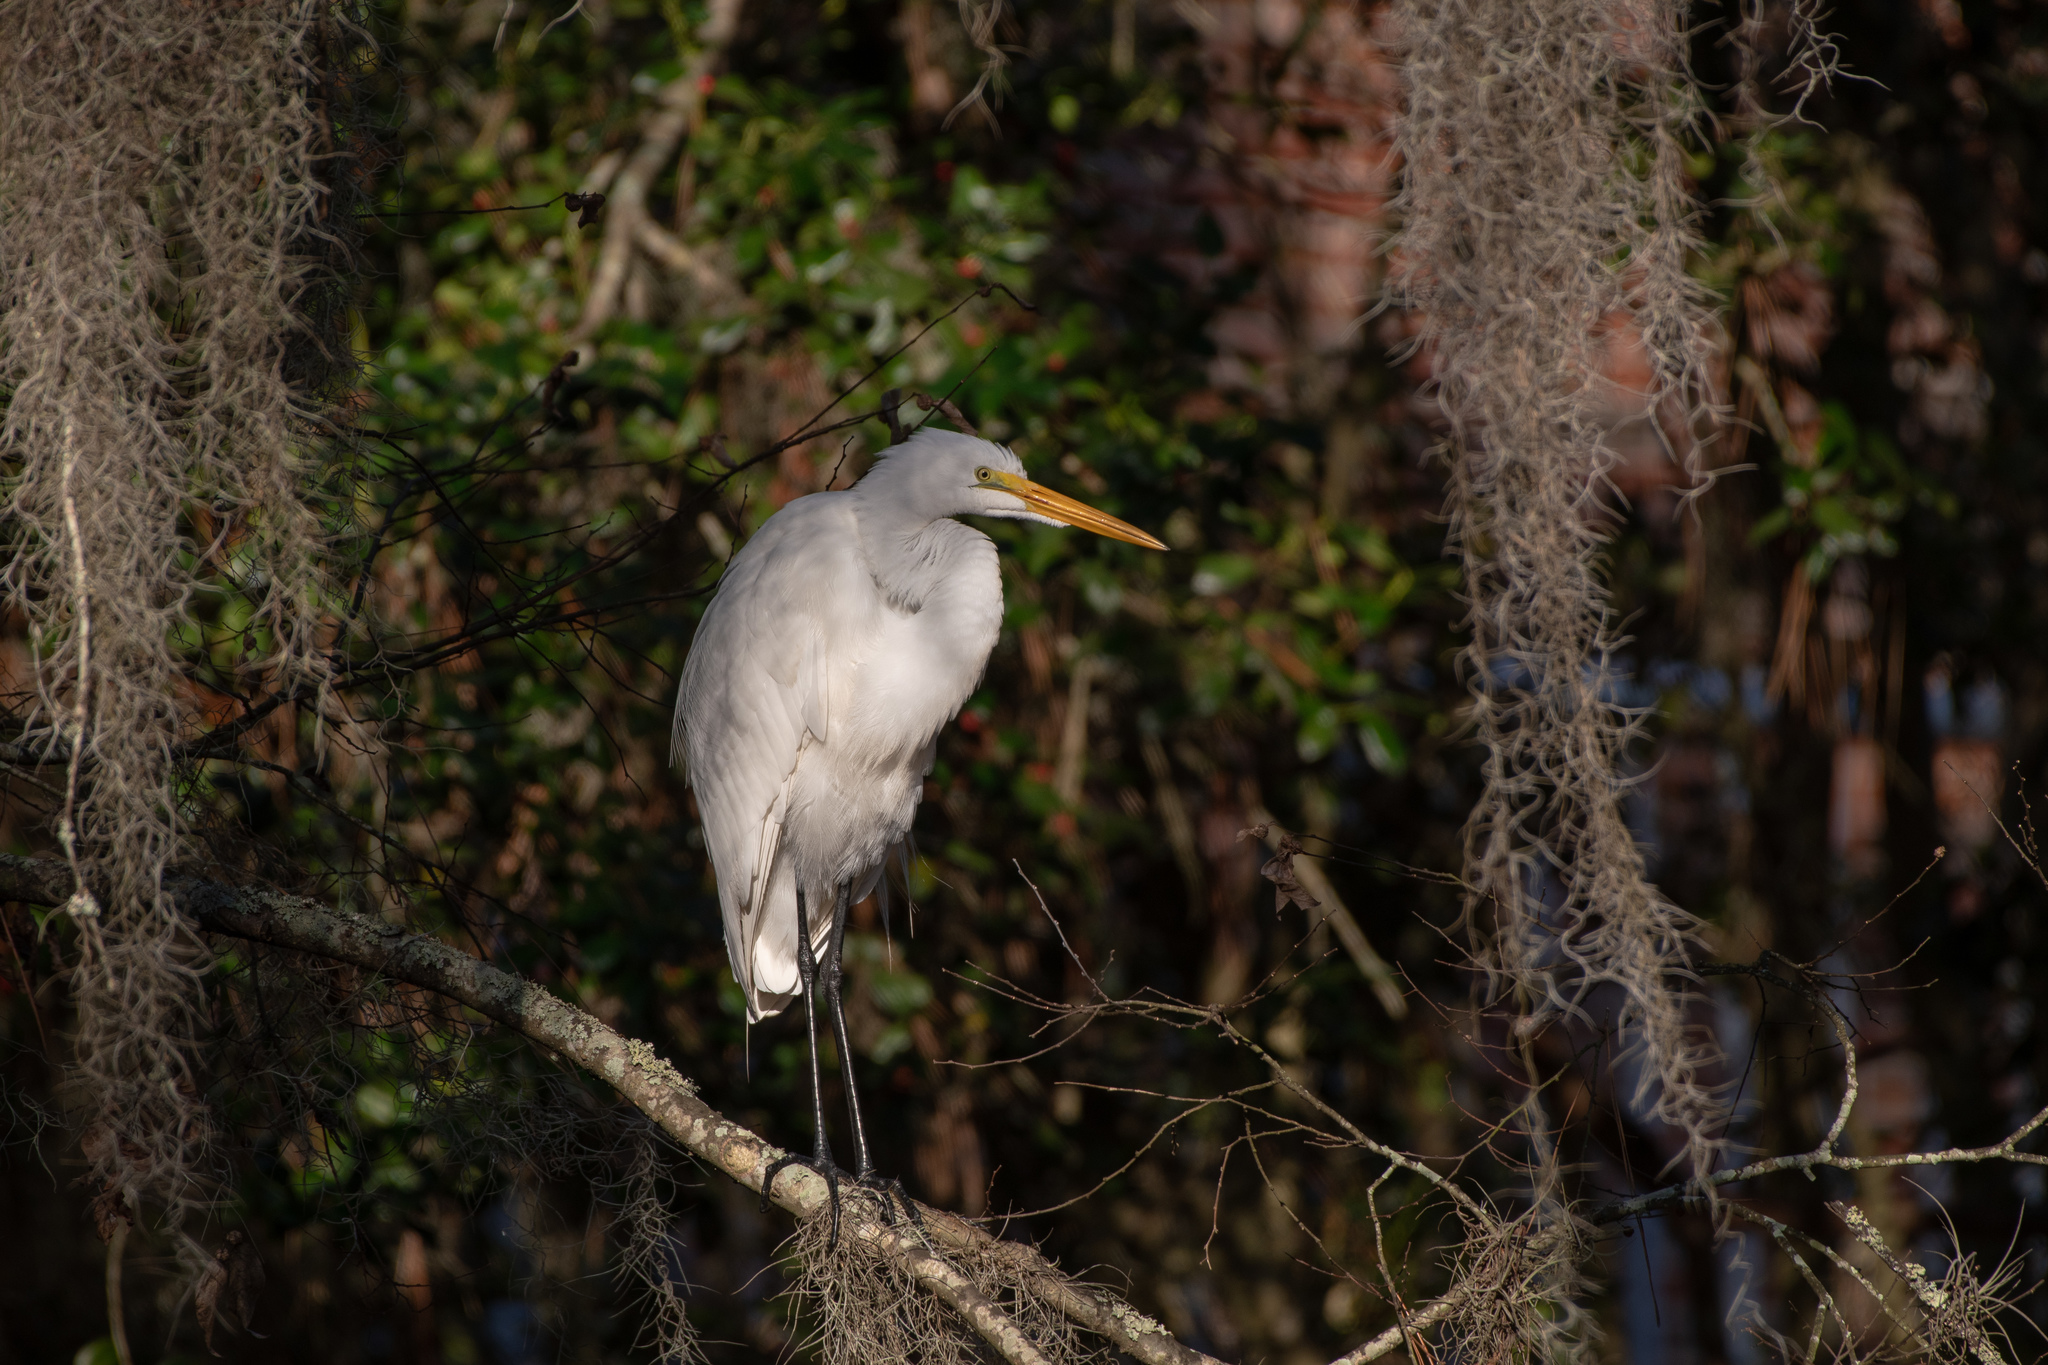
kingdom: Animalia
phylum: Chordata
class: Aves
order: Pelecaniformes
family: Ardeidae
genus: Ardea
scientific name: Ardea alba
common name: Great egret
